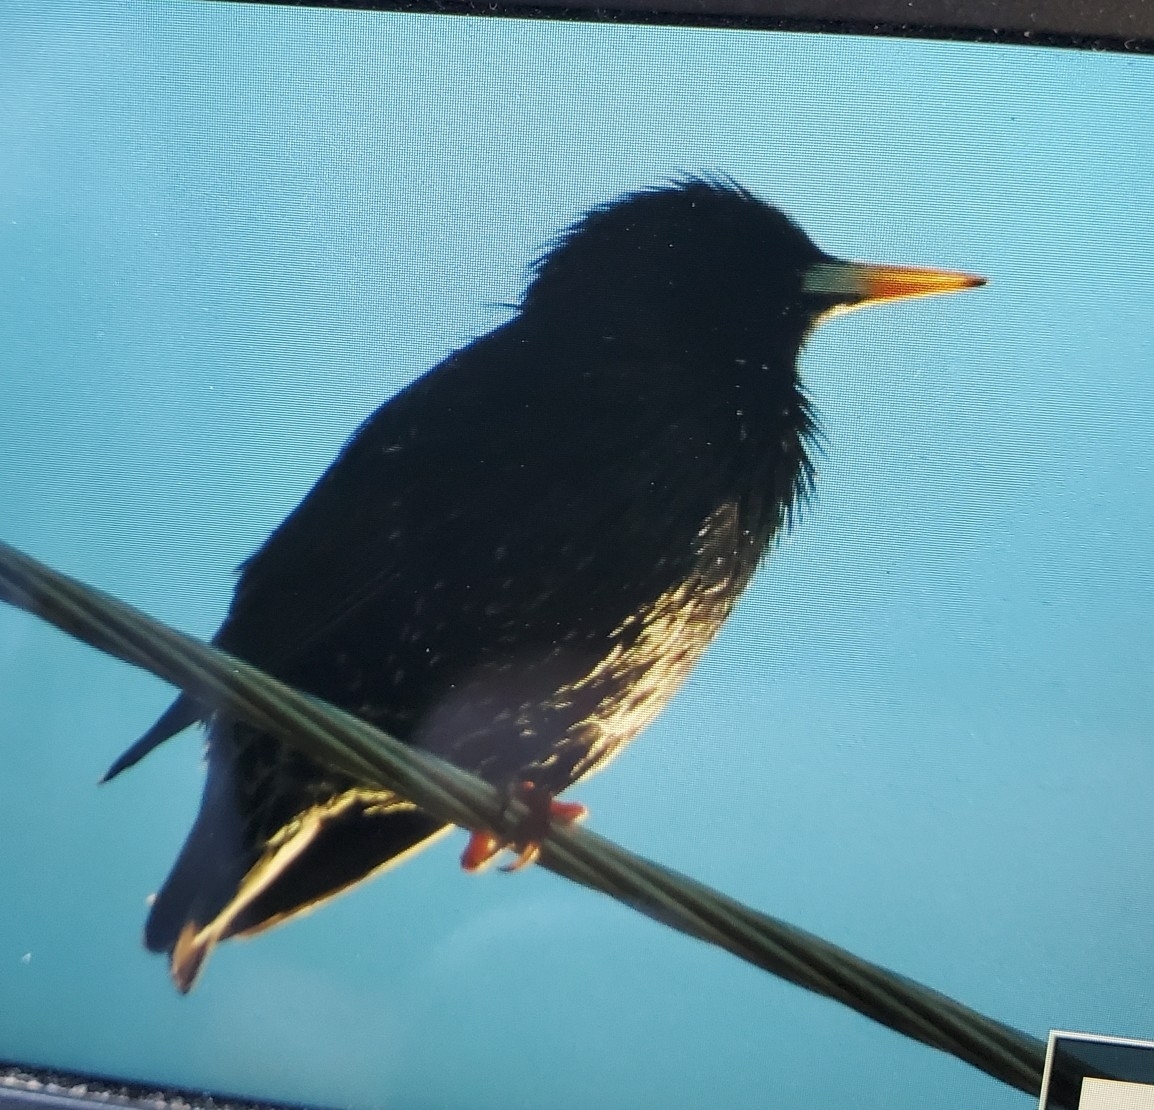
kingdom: Animalia
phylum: Chordata
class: Aves
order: Passeriformes
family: Sturnidae
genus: Sturnus
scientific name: Sturnus vulgaris
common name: Common starling
